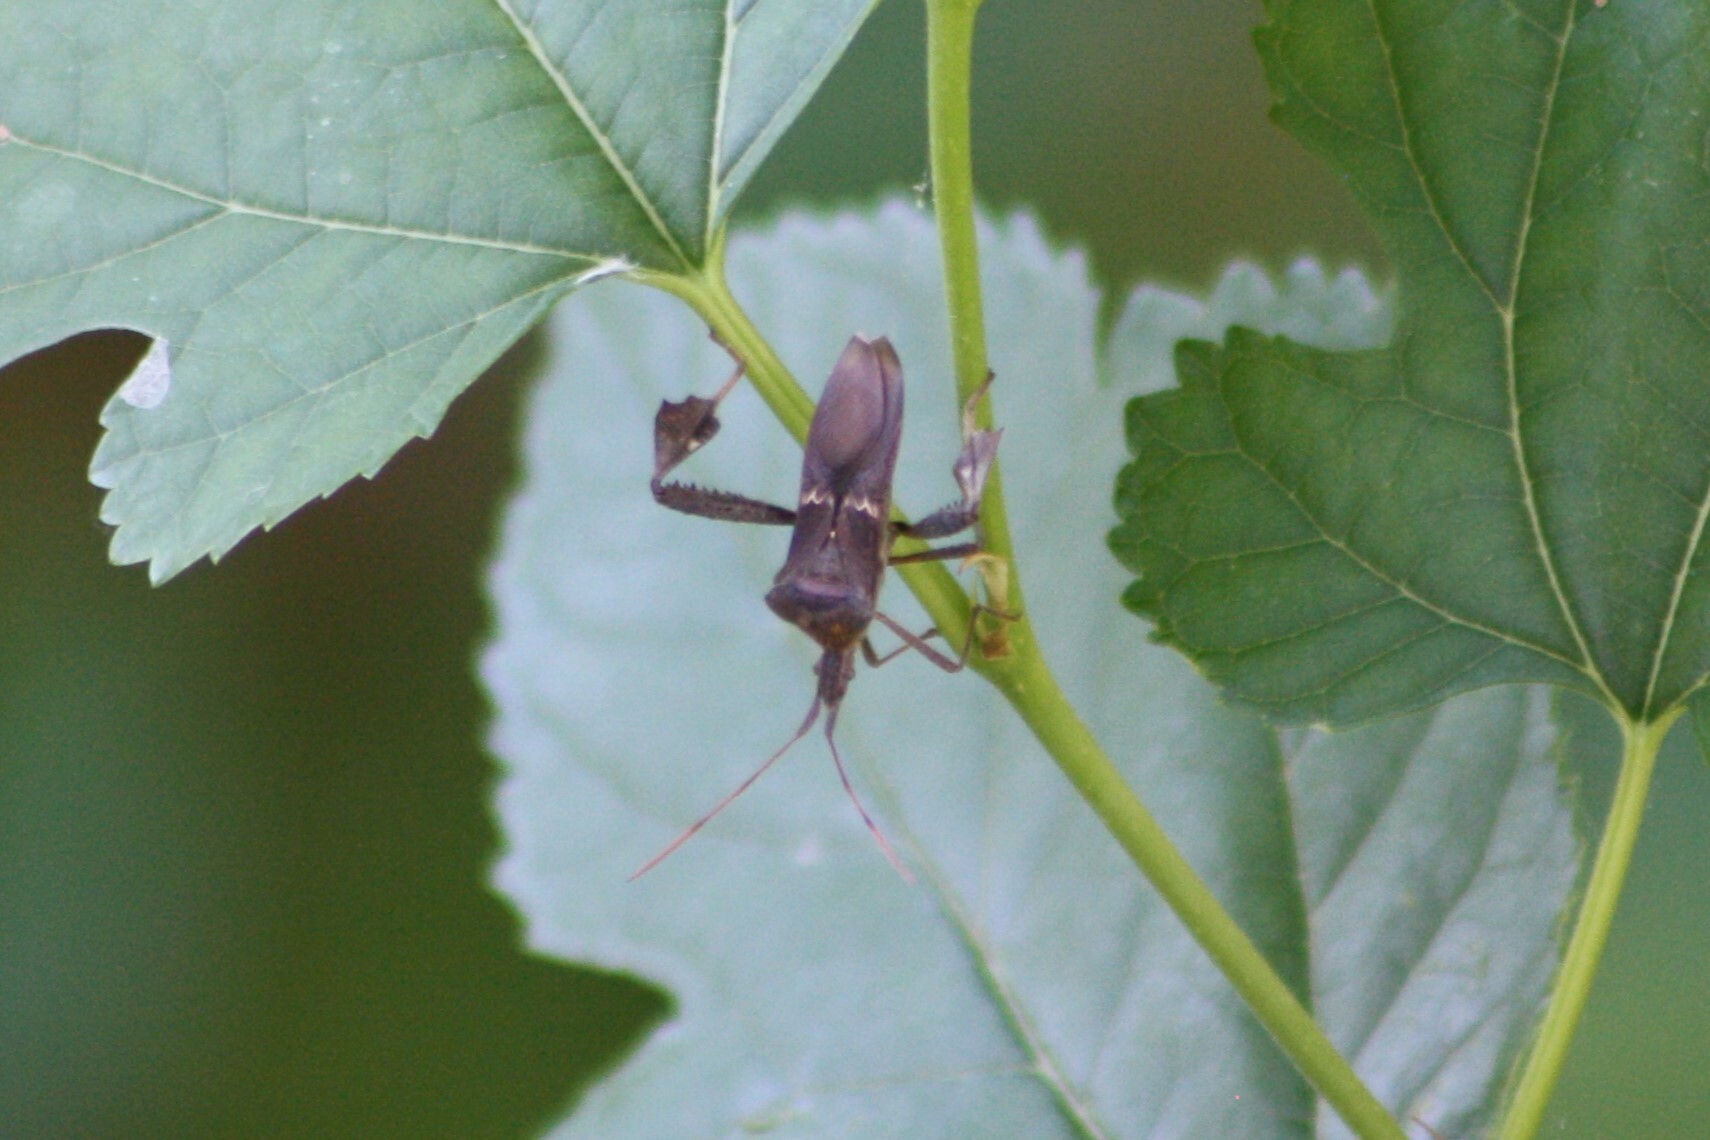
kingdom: Animalia
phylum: Arthropoda
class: Insecta
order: Hemiptera
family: Coreidae
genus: Leptoglossus
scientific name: Leptoglossus zonatus
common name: Large-legged bug
